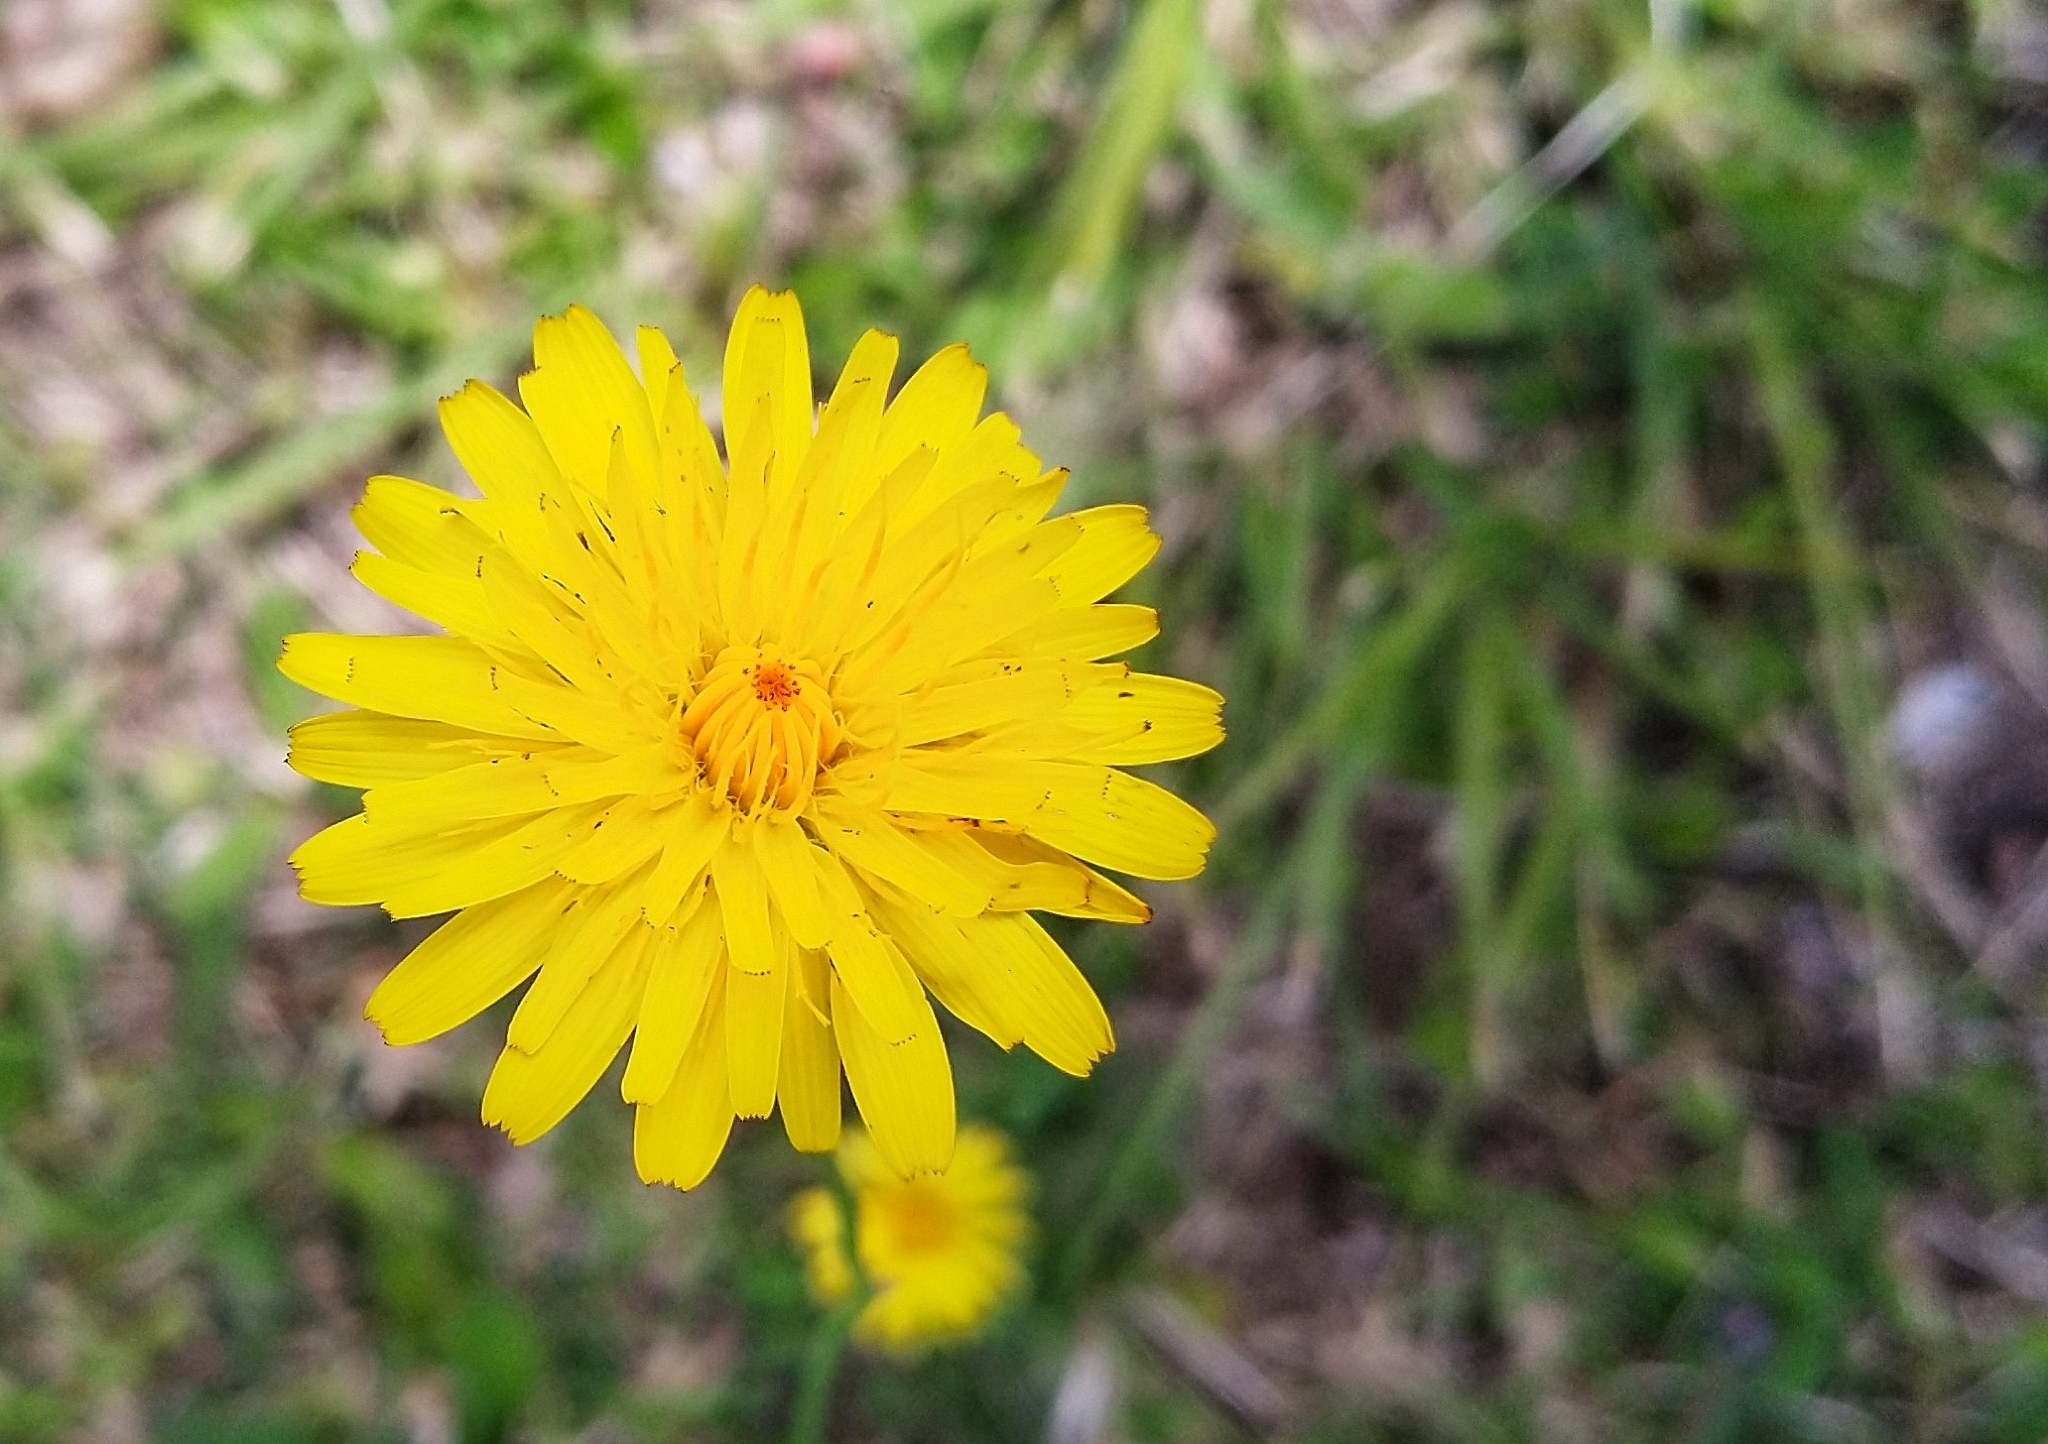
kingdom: Plantae
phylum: Tracheophyta
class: Magnoliopsida
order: Asterales
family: Asteraceae
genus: Hypochaeris
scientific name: Hypochaeris radicata
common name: Flatweed
